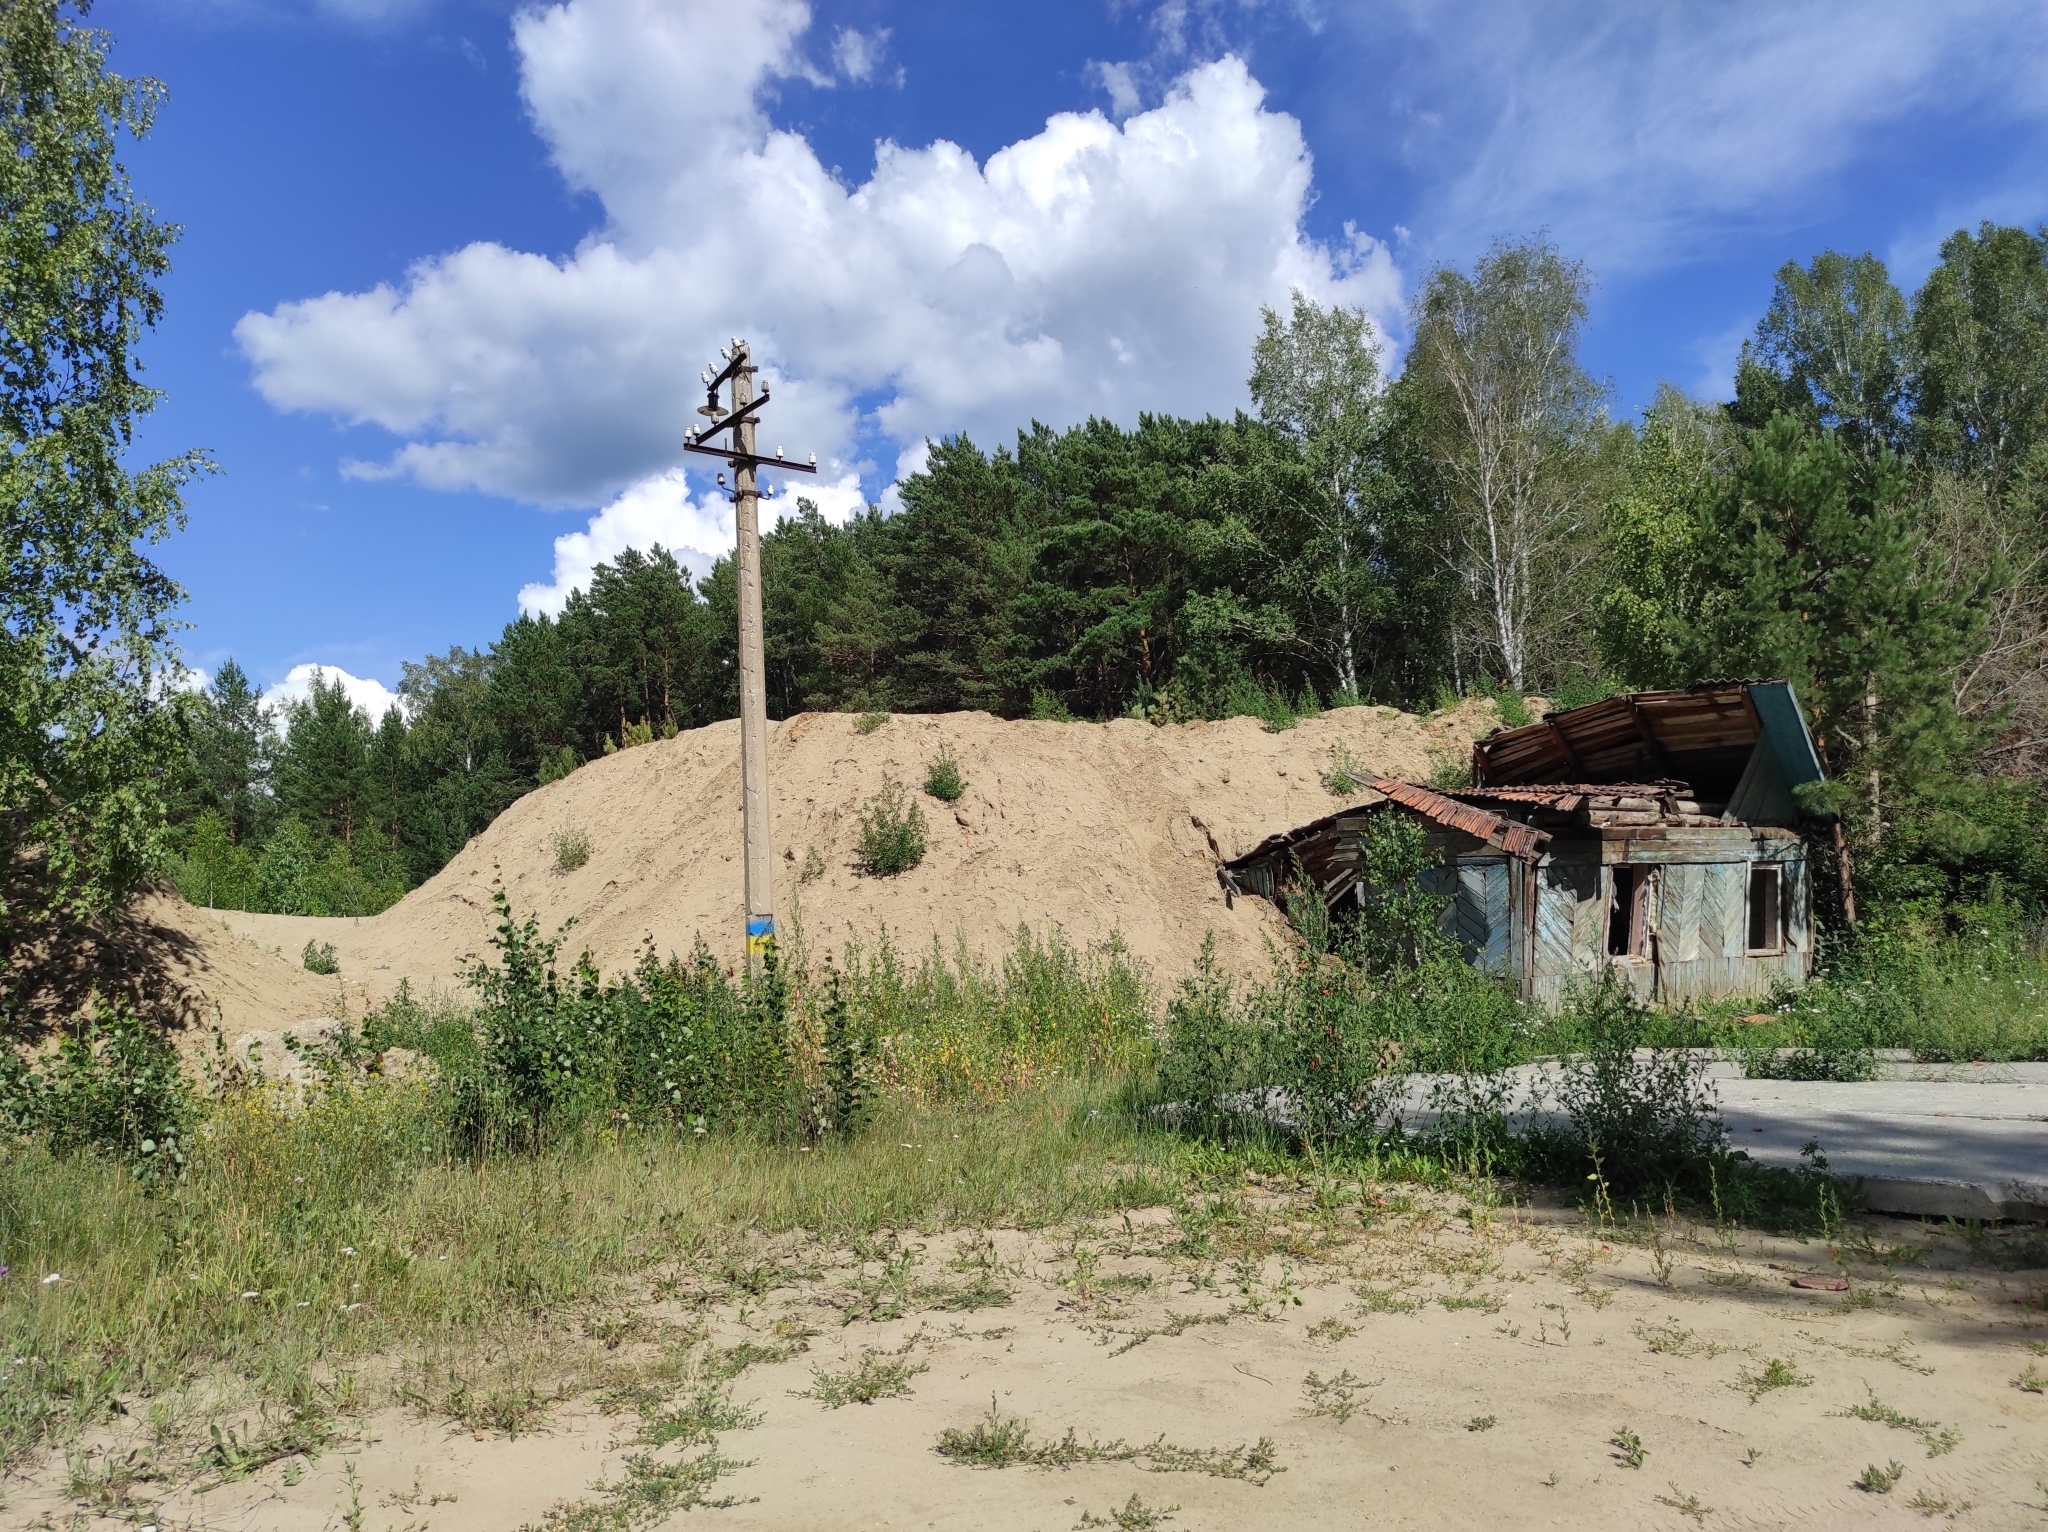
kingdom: Plantae
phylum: Tracheophyta
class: Pinopsida
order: Pinales
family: Pinaceae
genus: Pinus
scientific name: Pinus sylvestris
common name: Scots pine
